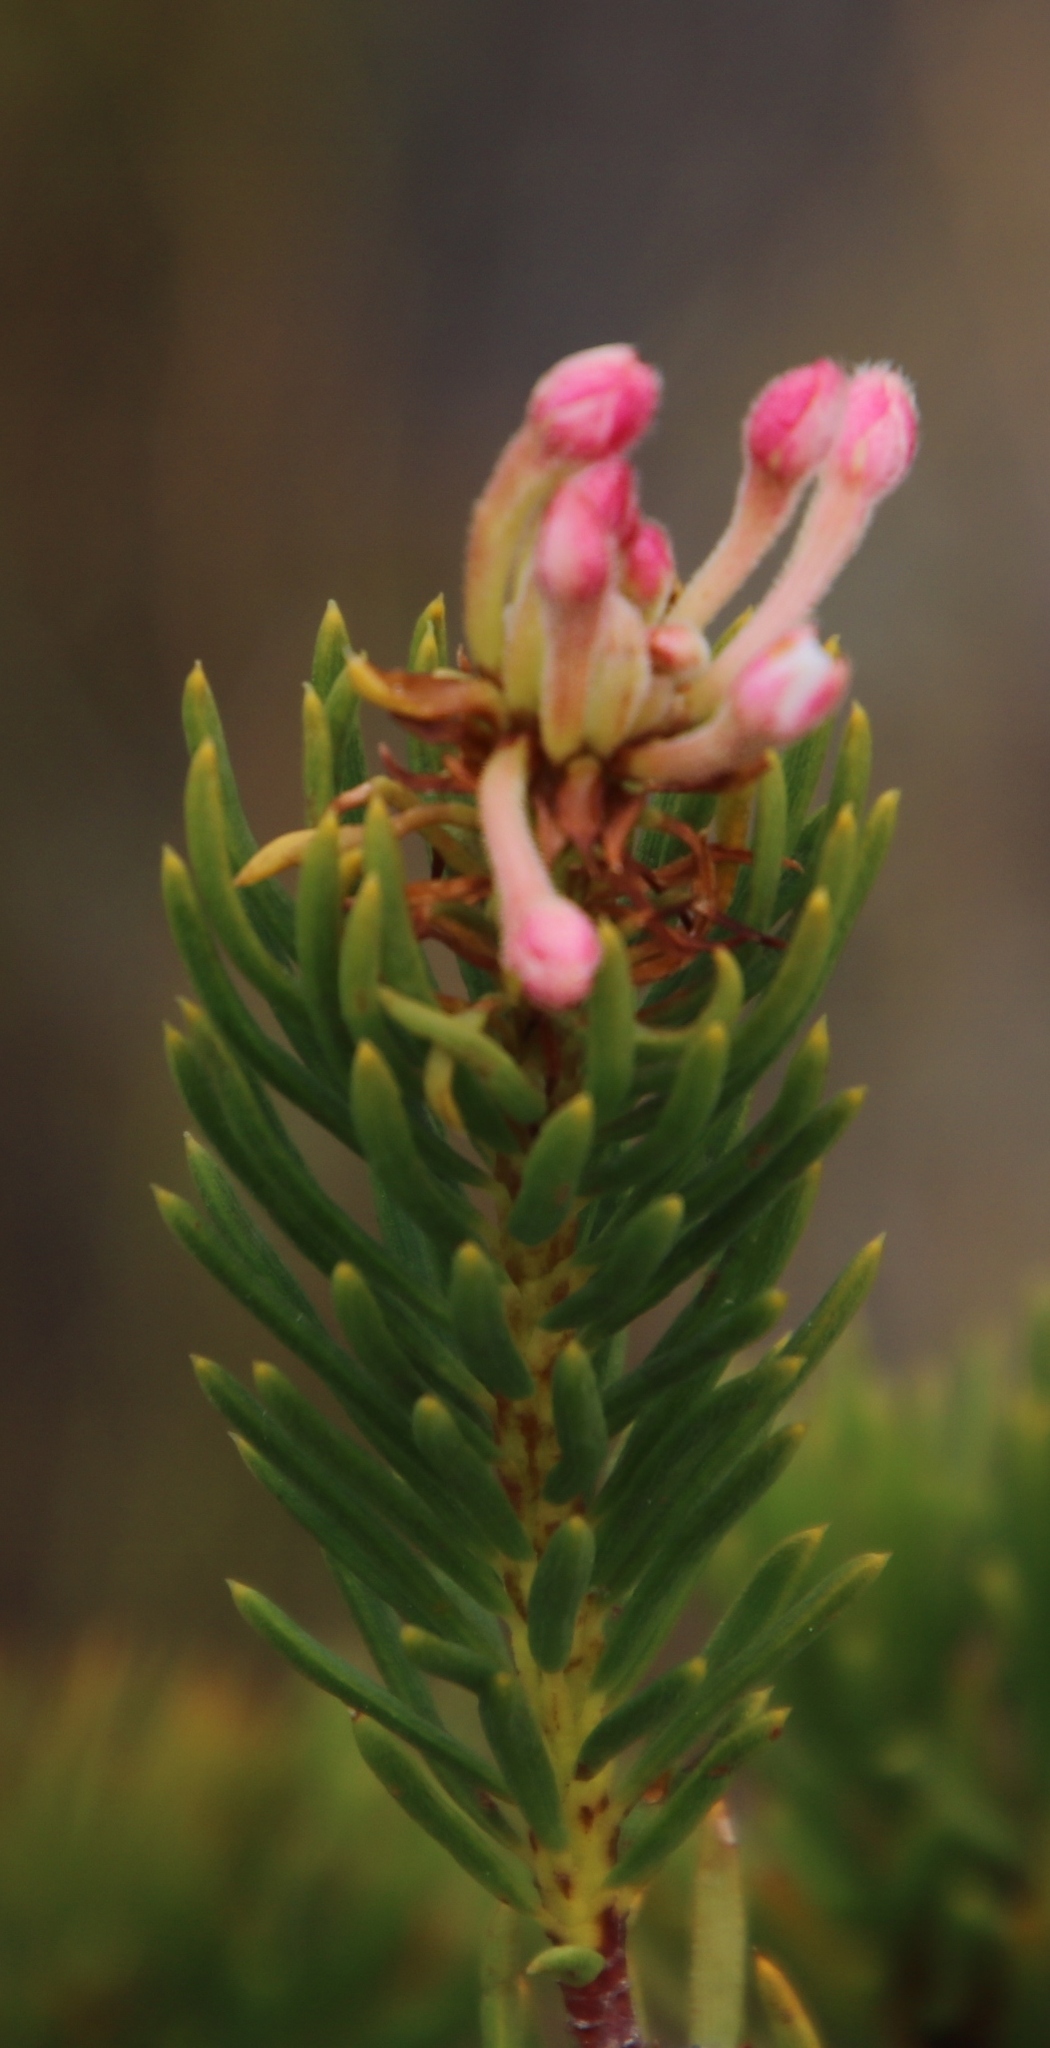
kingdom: Plantae
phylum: Tracheophyta
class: Magnoliopsida
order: Malvales
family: Thymelaeaceae
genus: Gnidia
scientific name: Gnidia pinifolia
